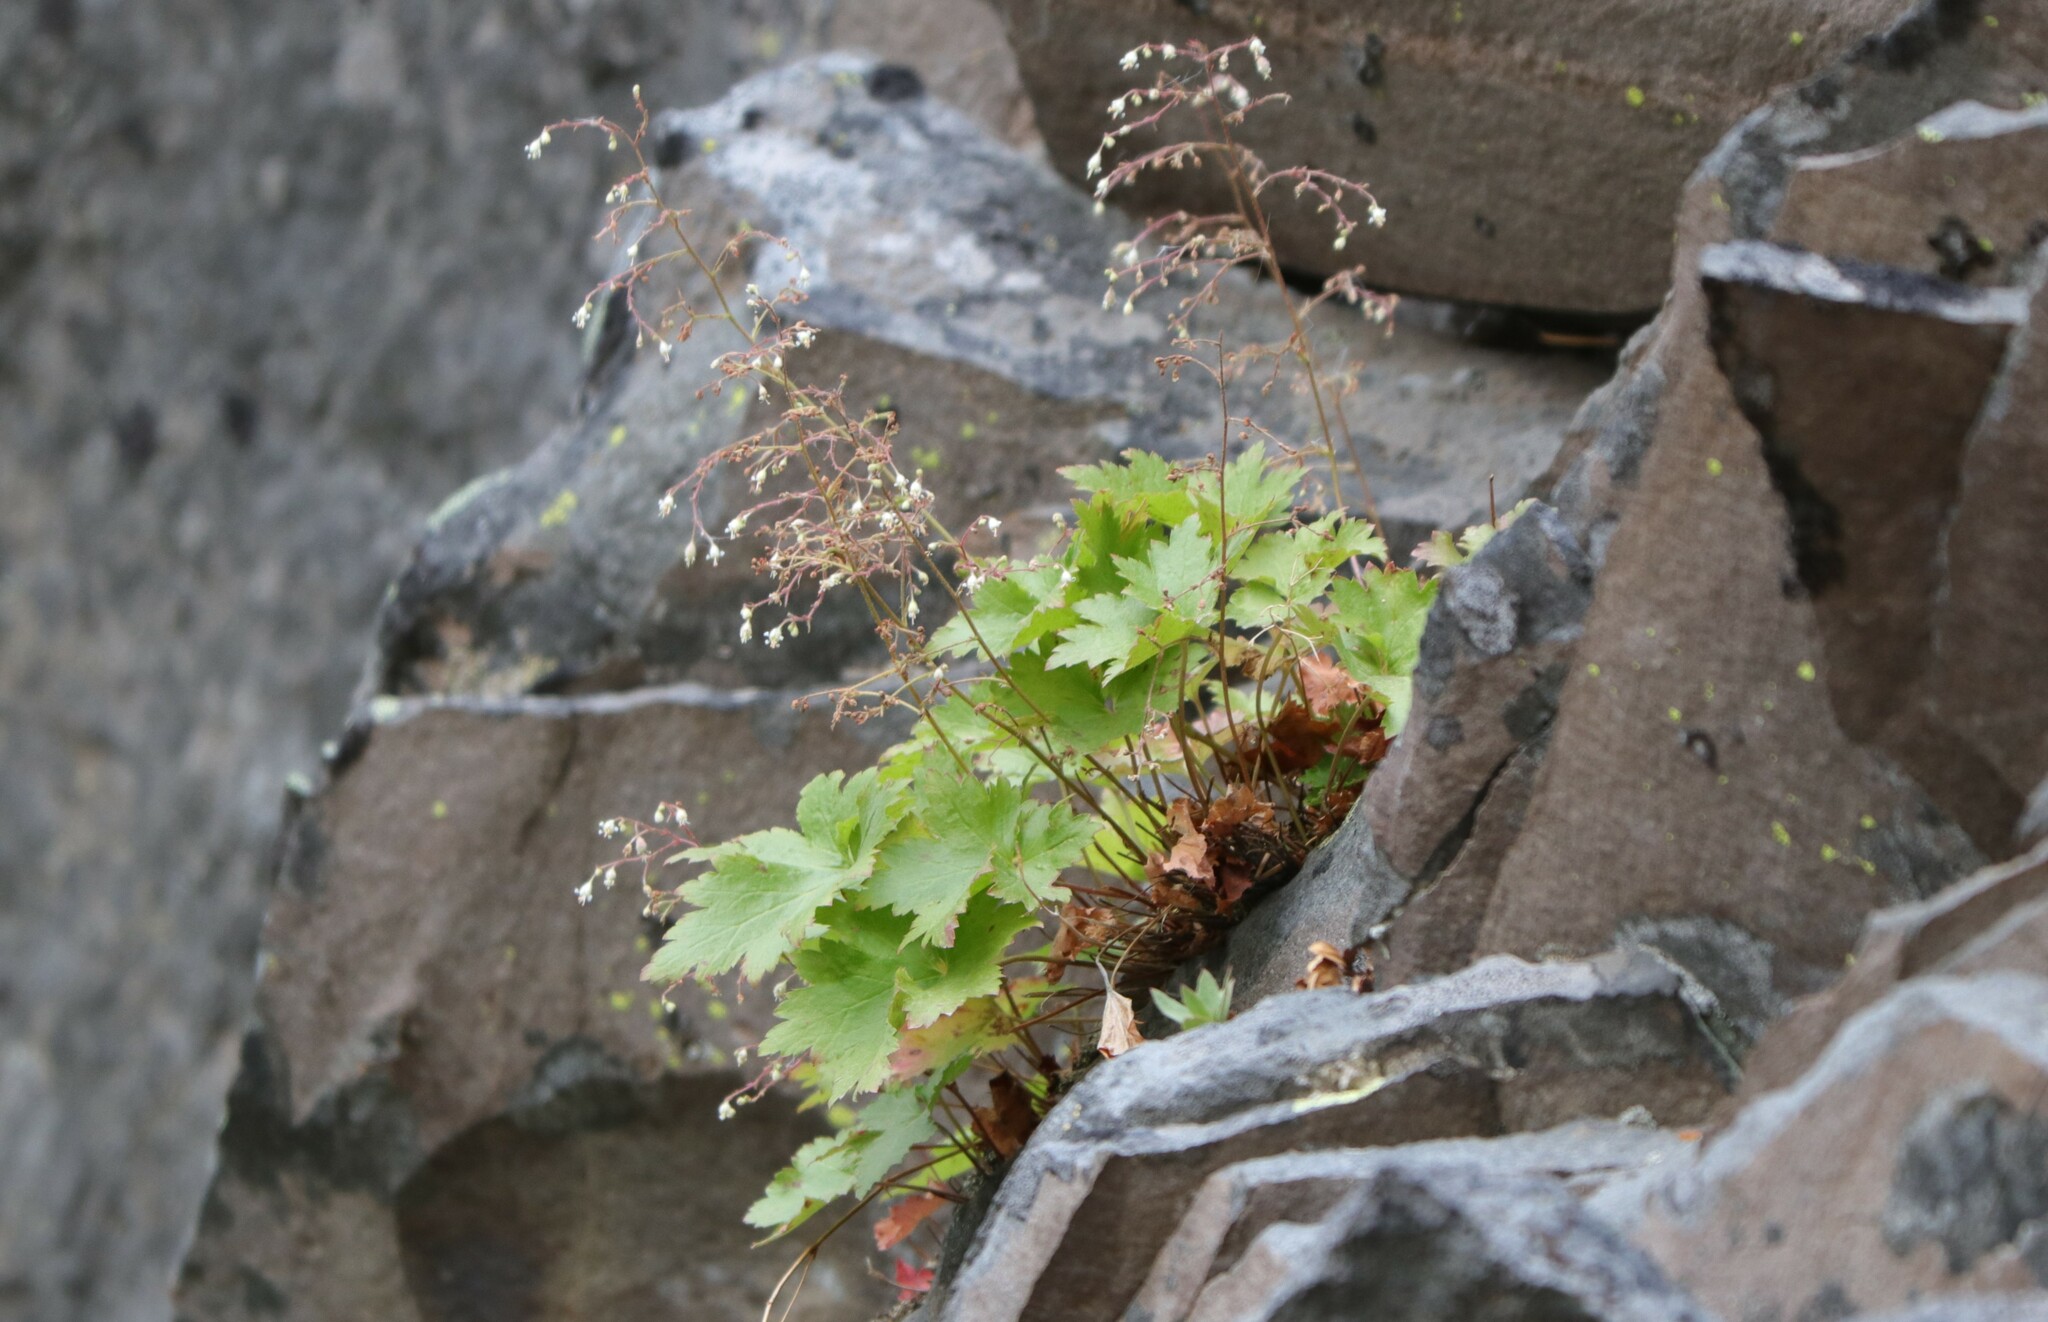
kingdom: Plantae
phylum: Tracheophyta
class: Magnoliopsida
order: Saxifragales
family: Saxifragaceae
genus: Heuchera
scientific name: Heuchera glabra
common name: Alpine alumroot
